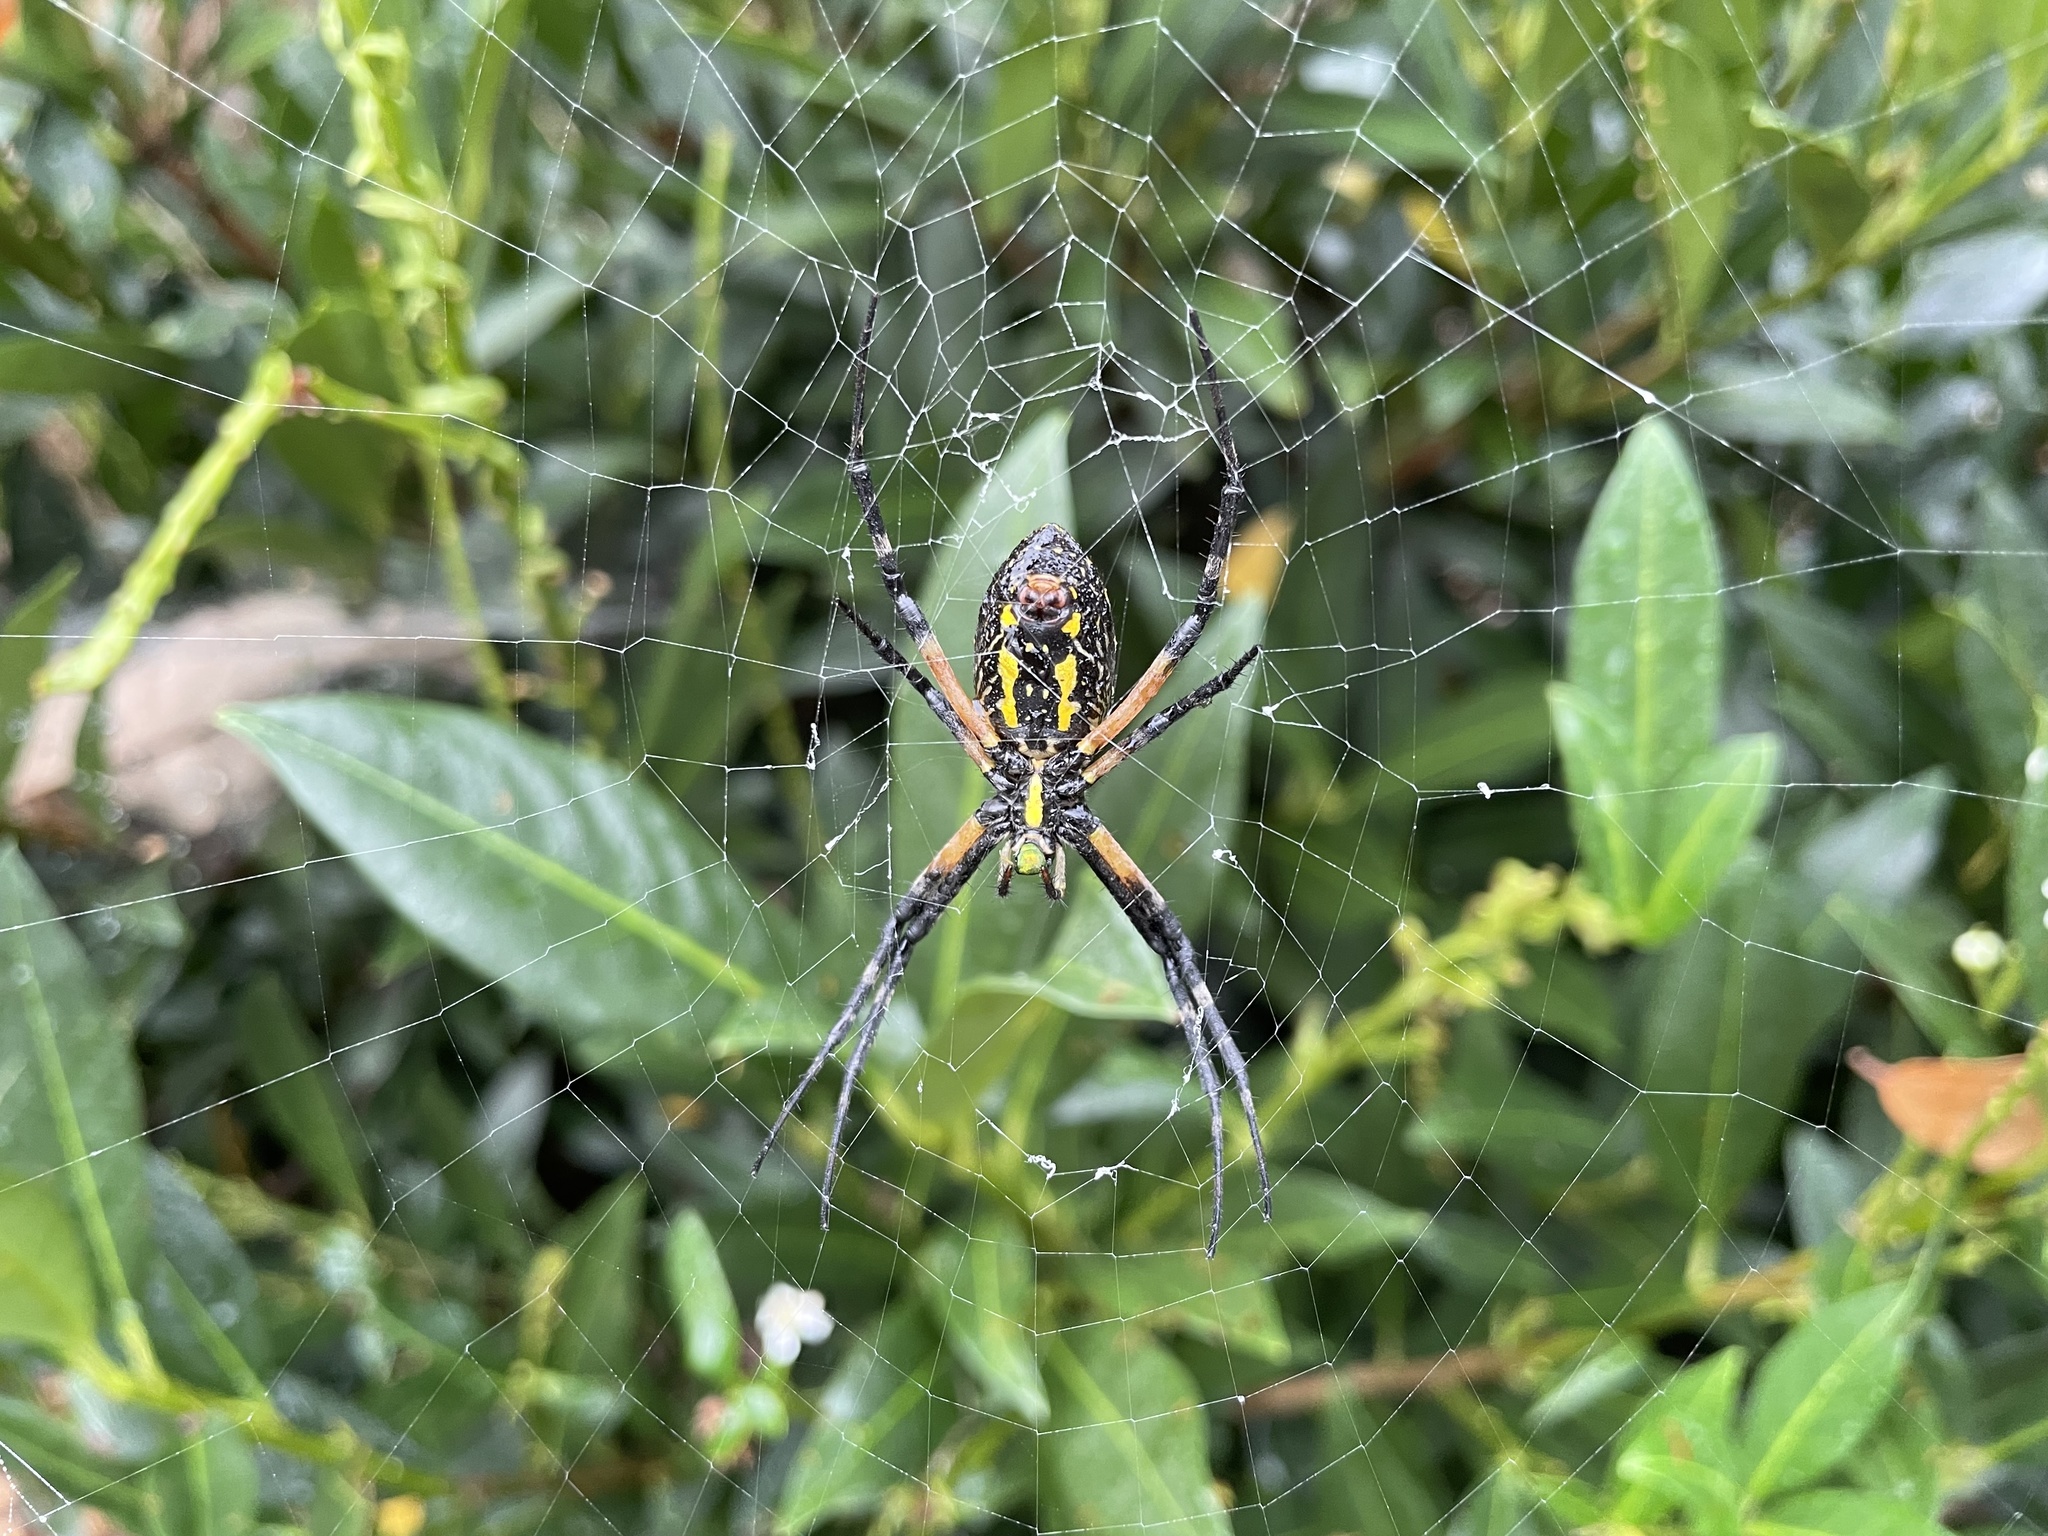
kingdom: Animalia
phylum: Arthropoda
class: Arachnida
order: Araneae
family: Araneidae
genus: Argiope
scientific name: Argiope aurantia
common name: Orb weavers
